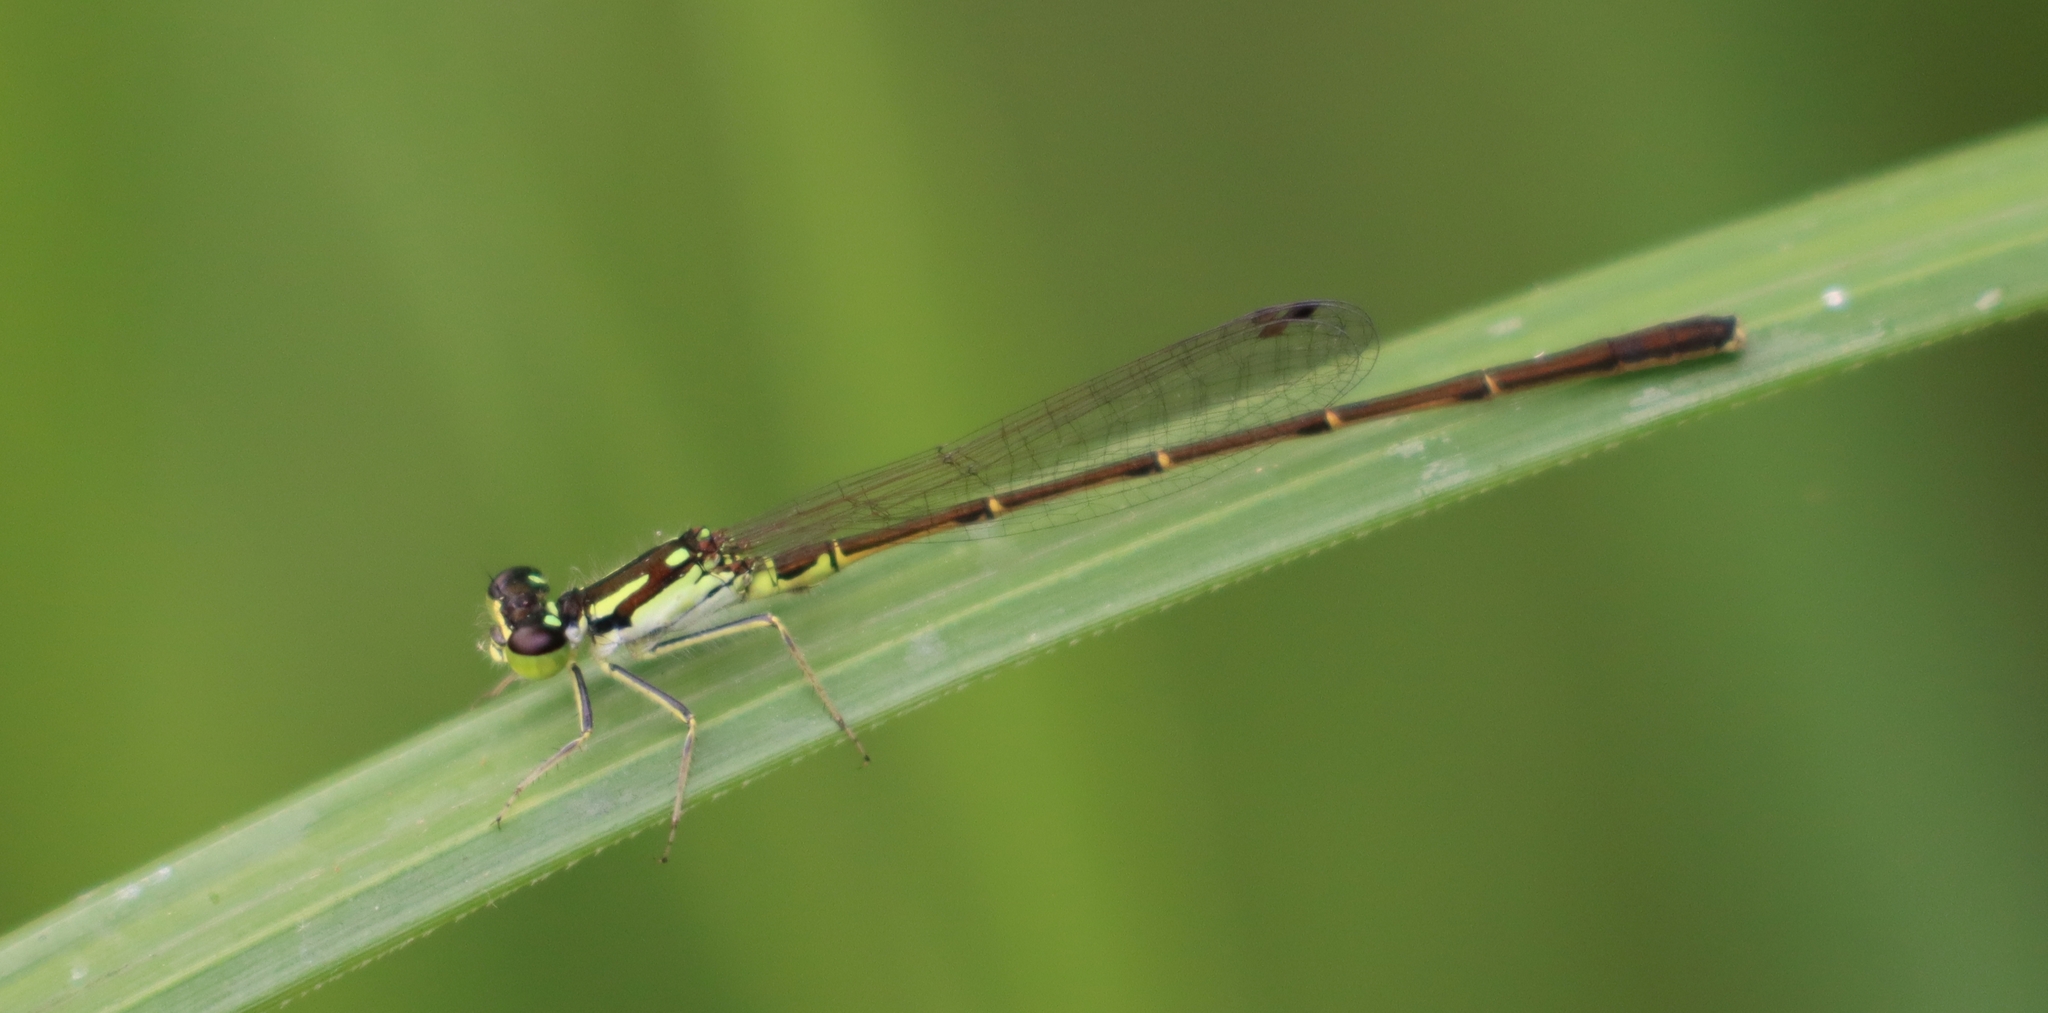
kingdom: Animalia
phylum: Arthropoda
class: Insecta
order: Odonata
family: Coenagrionidae
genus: Ischnura
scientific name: Ischnura posita
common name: Fragile forktail
